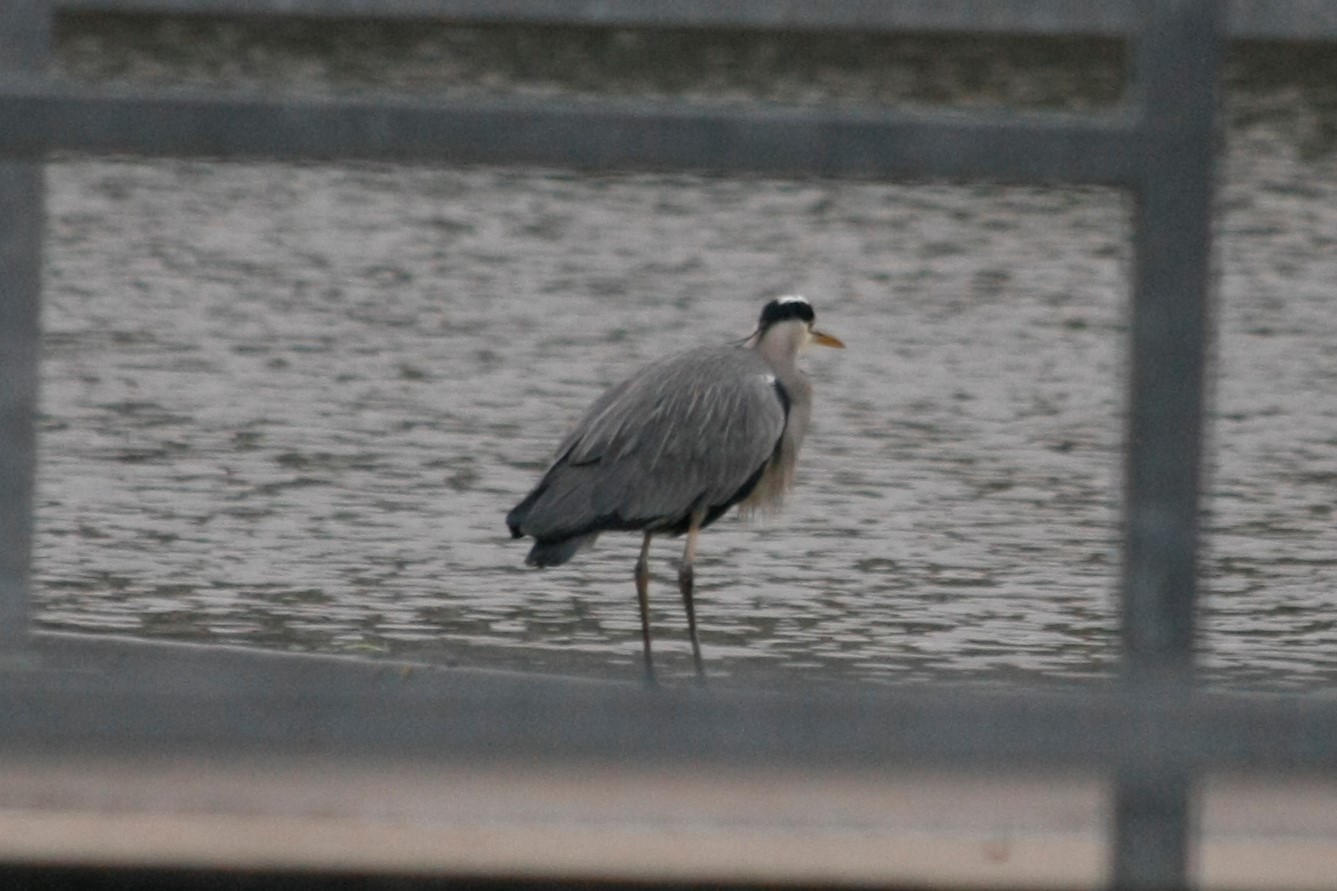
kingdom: Animalia
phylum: Chordata
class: Aves
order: Pelecaniformes
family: Ardeidae
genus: Ardea
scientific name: Ardea cinerea
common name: Grey heron
